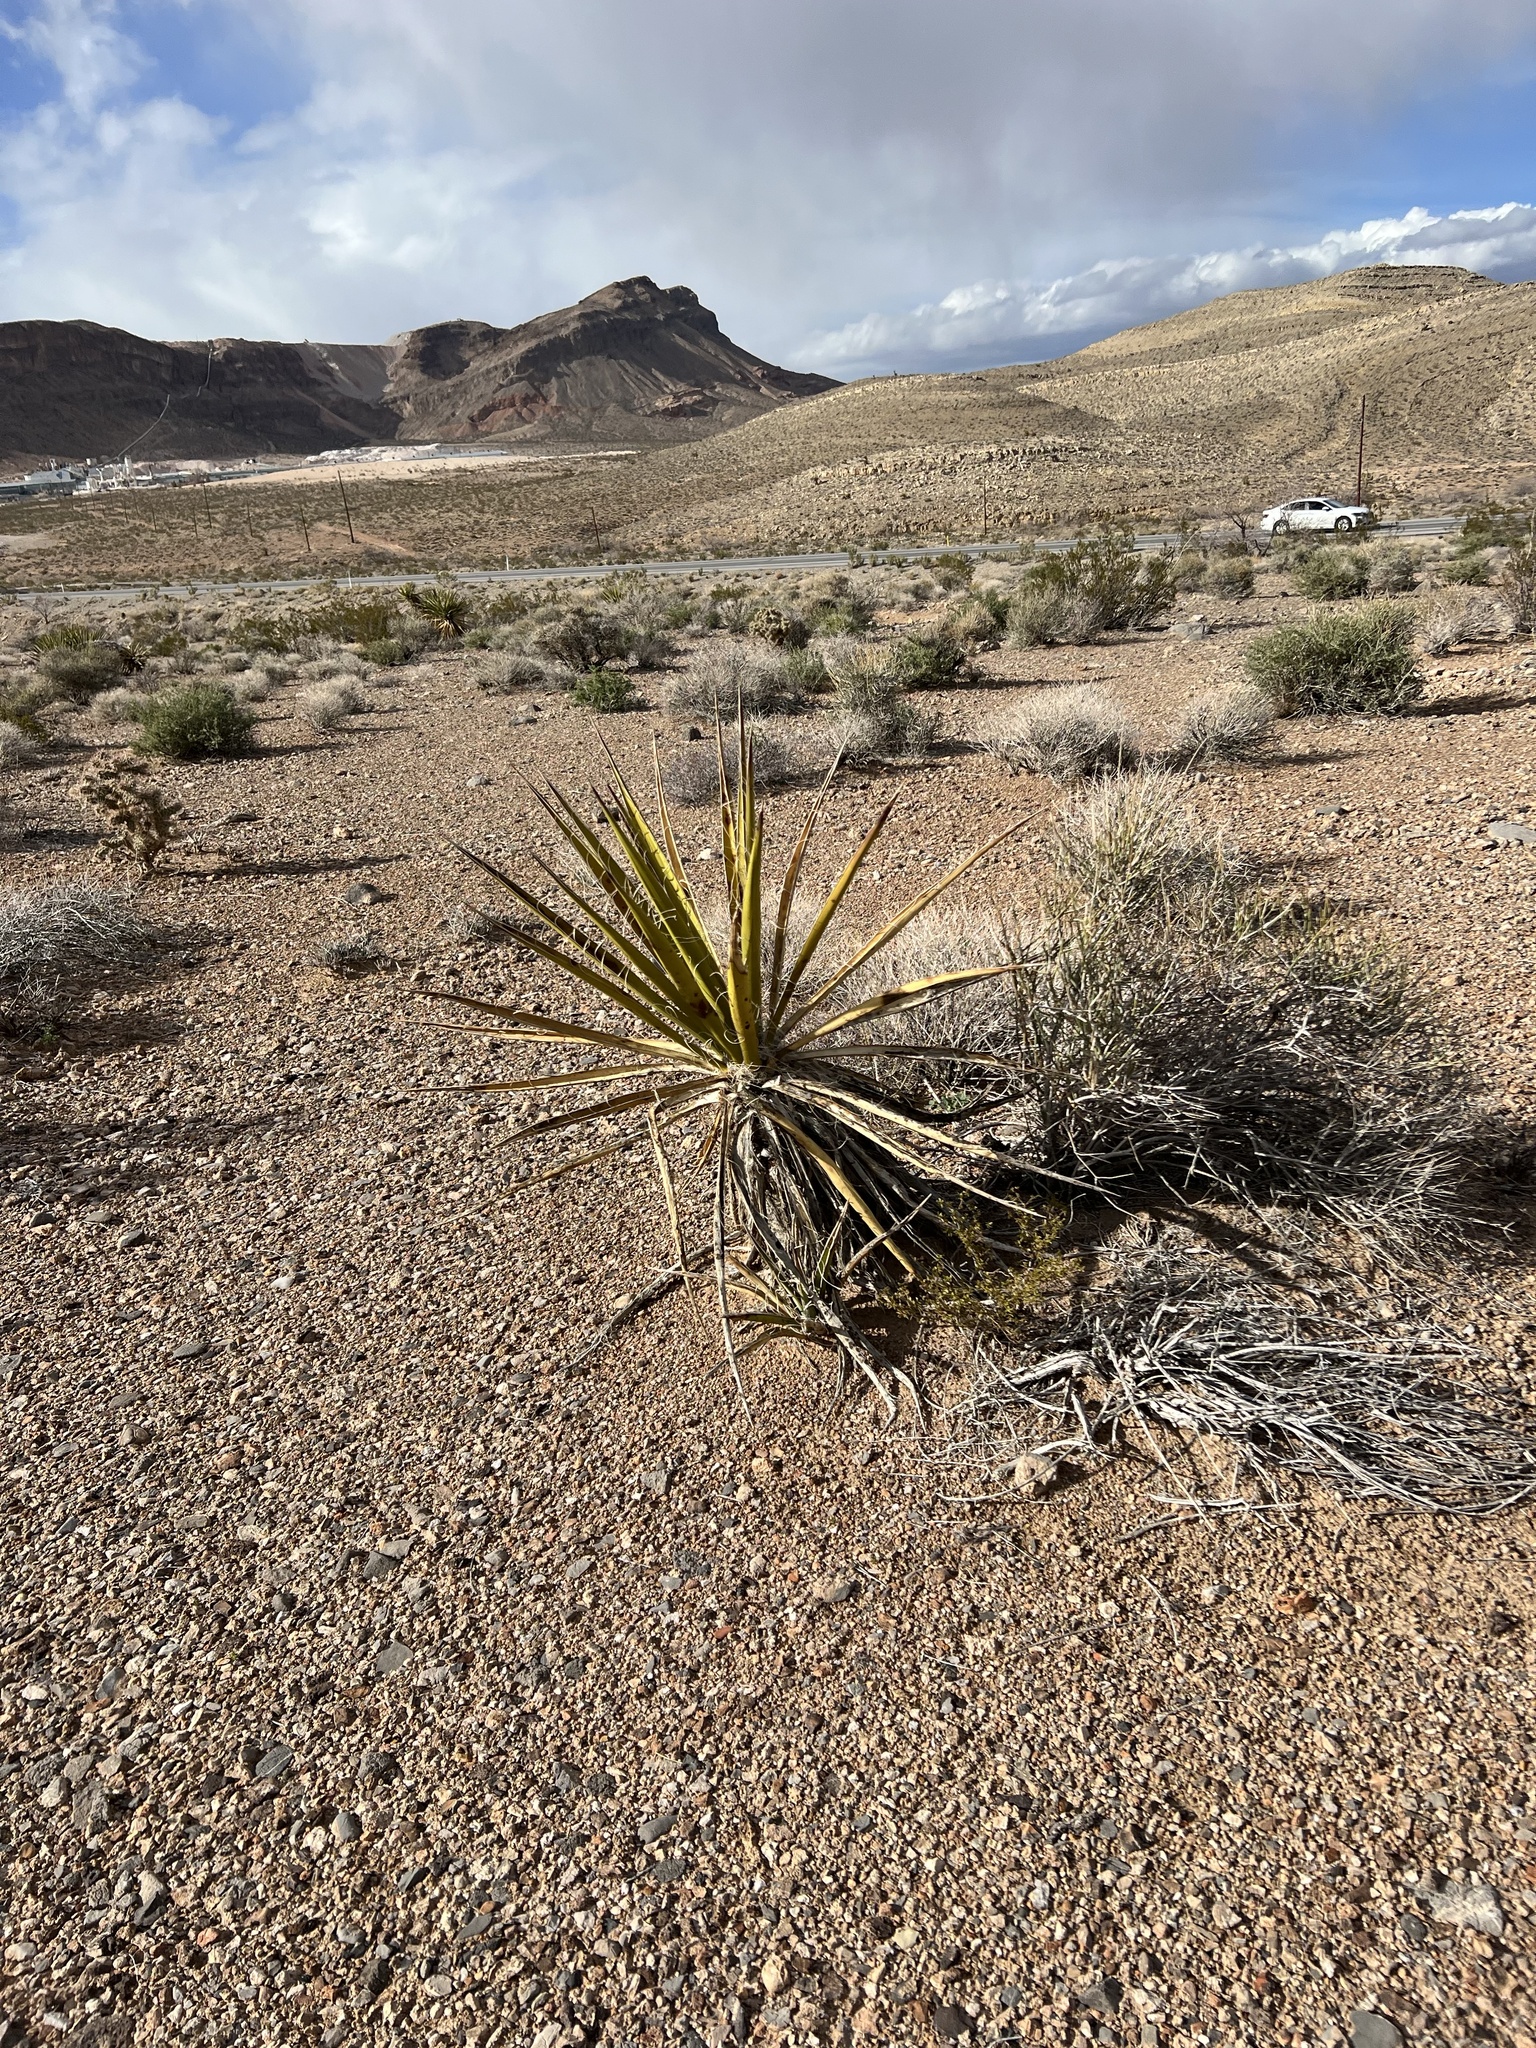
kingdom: Plantae
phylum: Tracheophyta
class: Liliopsida
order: Asparagales
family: Asparagaceae
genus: Yucca
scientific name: Yucca schidigera
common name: Mojave yucca
